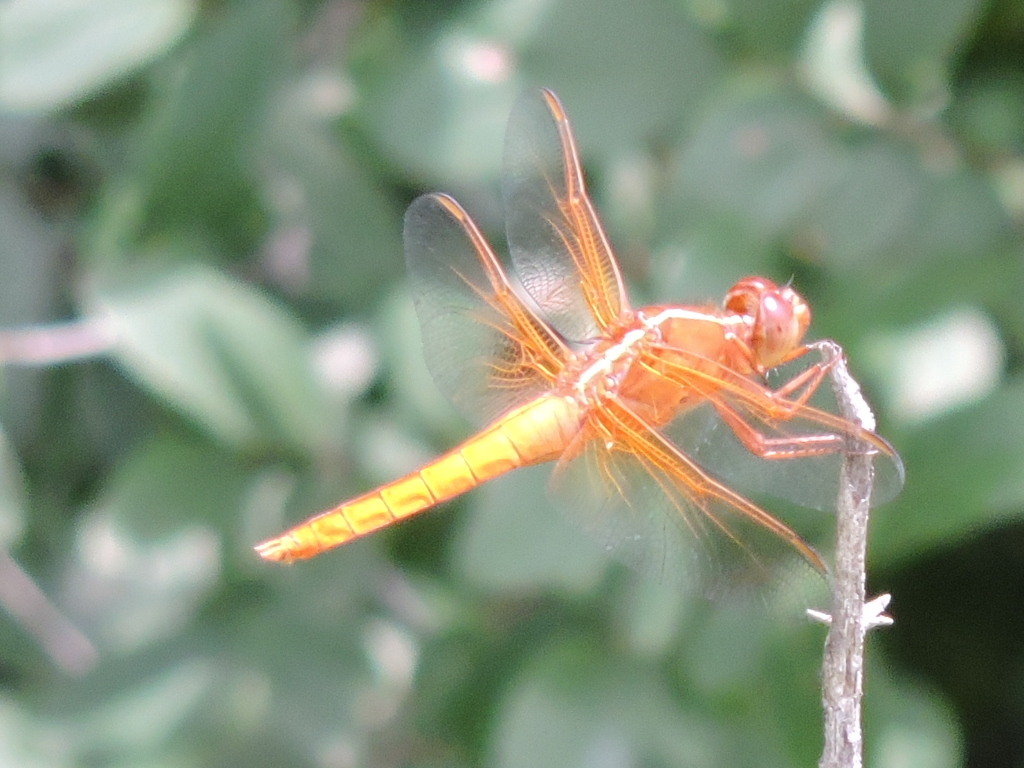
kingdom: Animalia
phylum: Arthropoda
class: Insecta
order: Odonata
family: Libellulidae
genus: Libellula
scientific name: Libellula croceipennis
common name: Neon skimmer
